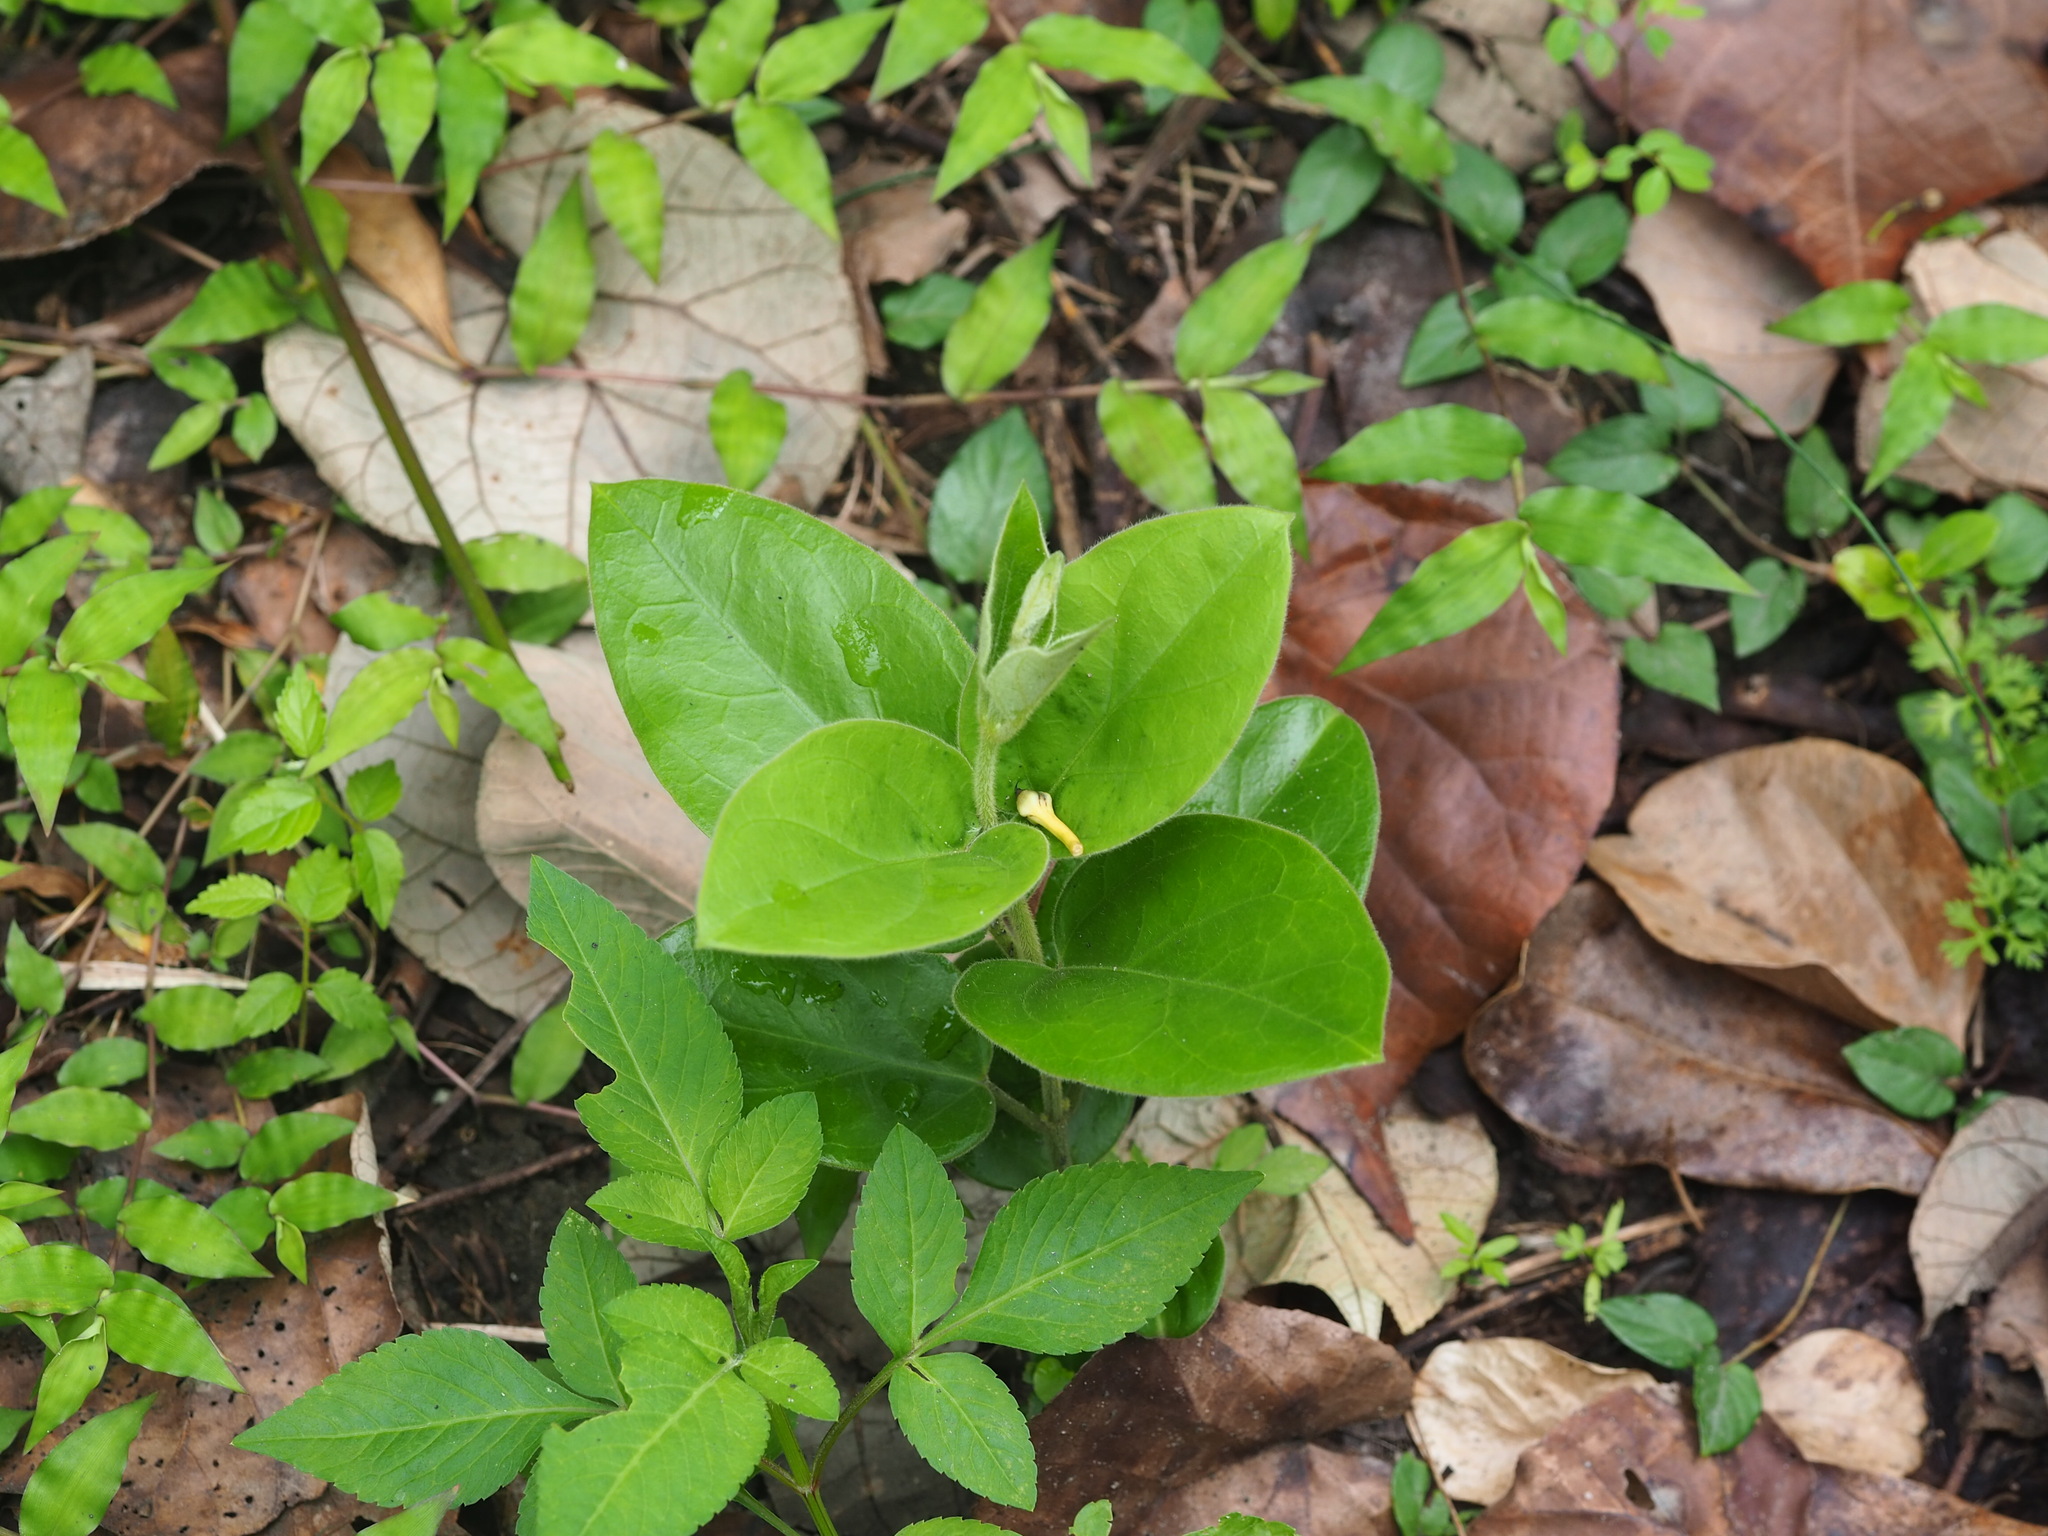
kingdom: Plantae
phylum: Tracheophyta
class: Magnoliopsida
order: Gentianales
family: Apocynaceae
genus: Vincetoxicum
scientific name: Vincetoxicum hirsutum
